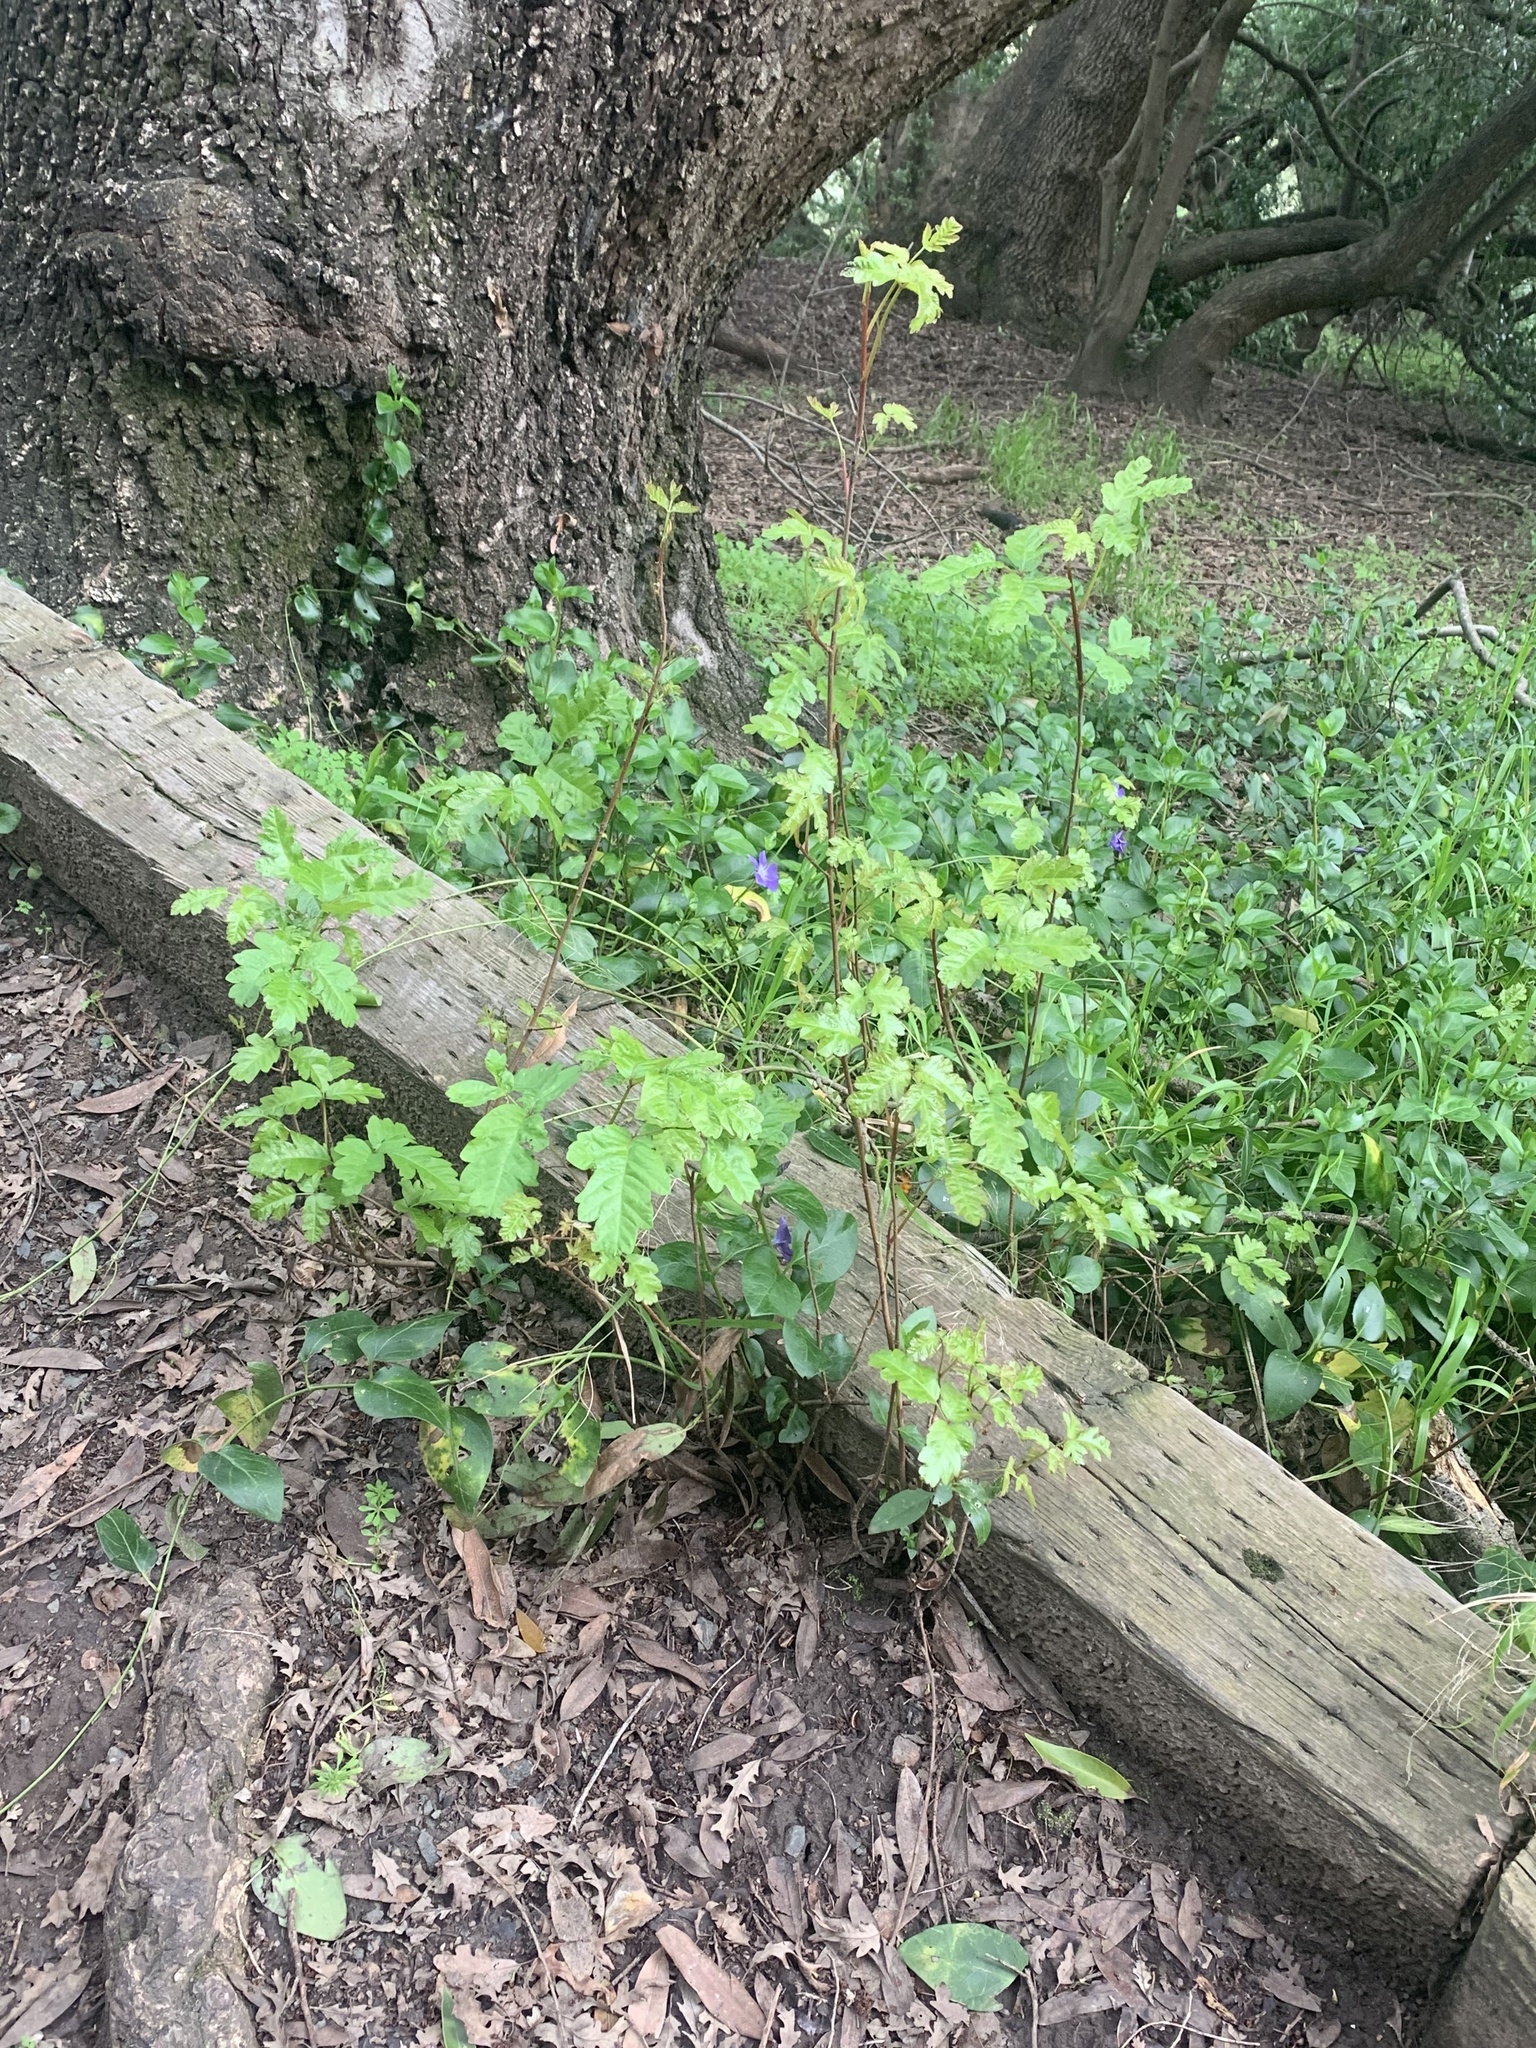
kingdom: Plantae
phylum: Tracheophyta
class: Magnoliopsida
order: Sapindales
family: Anacardiaceae
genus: Toxicodendron
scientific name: Toxicodendron diversilobum
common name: Pacific poison-oak
